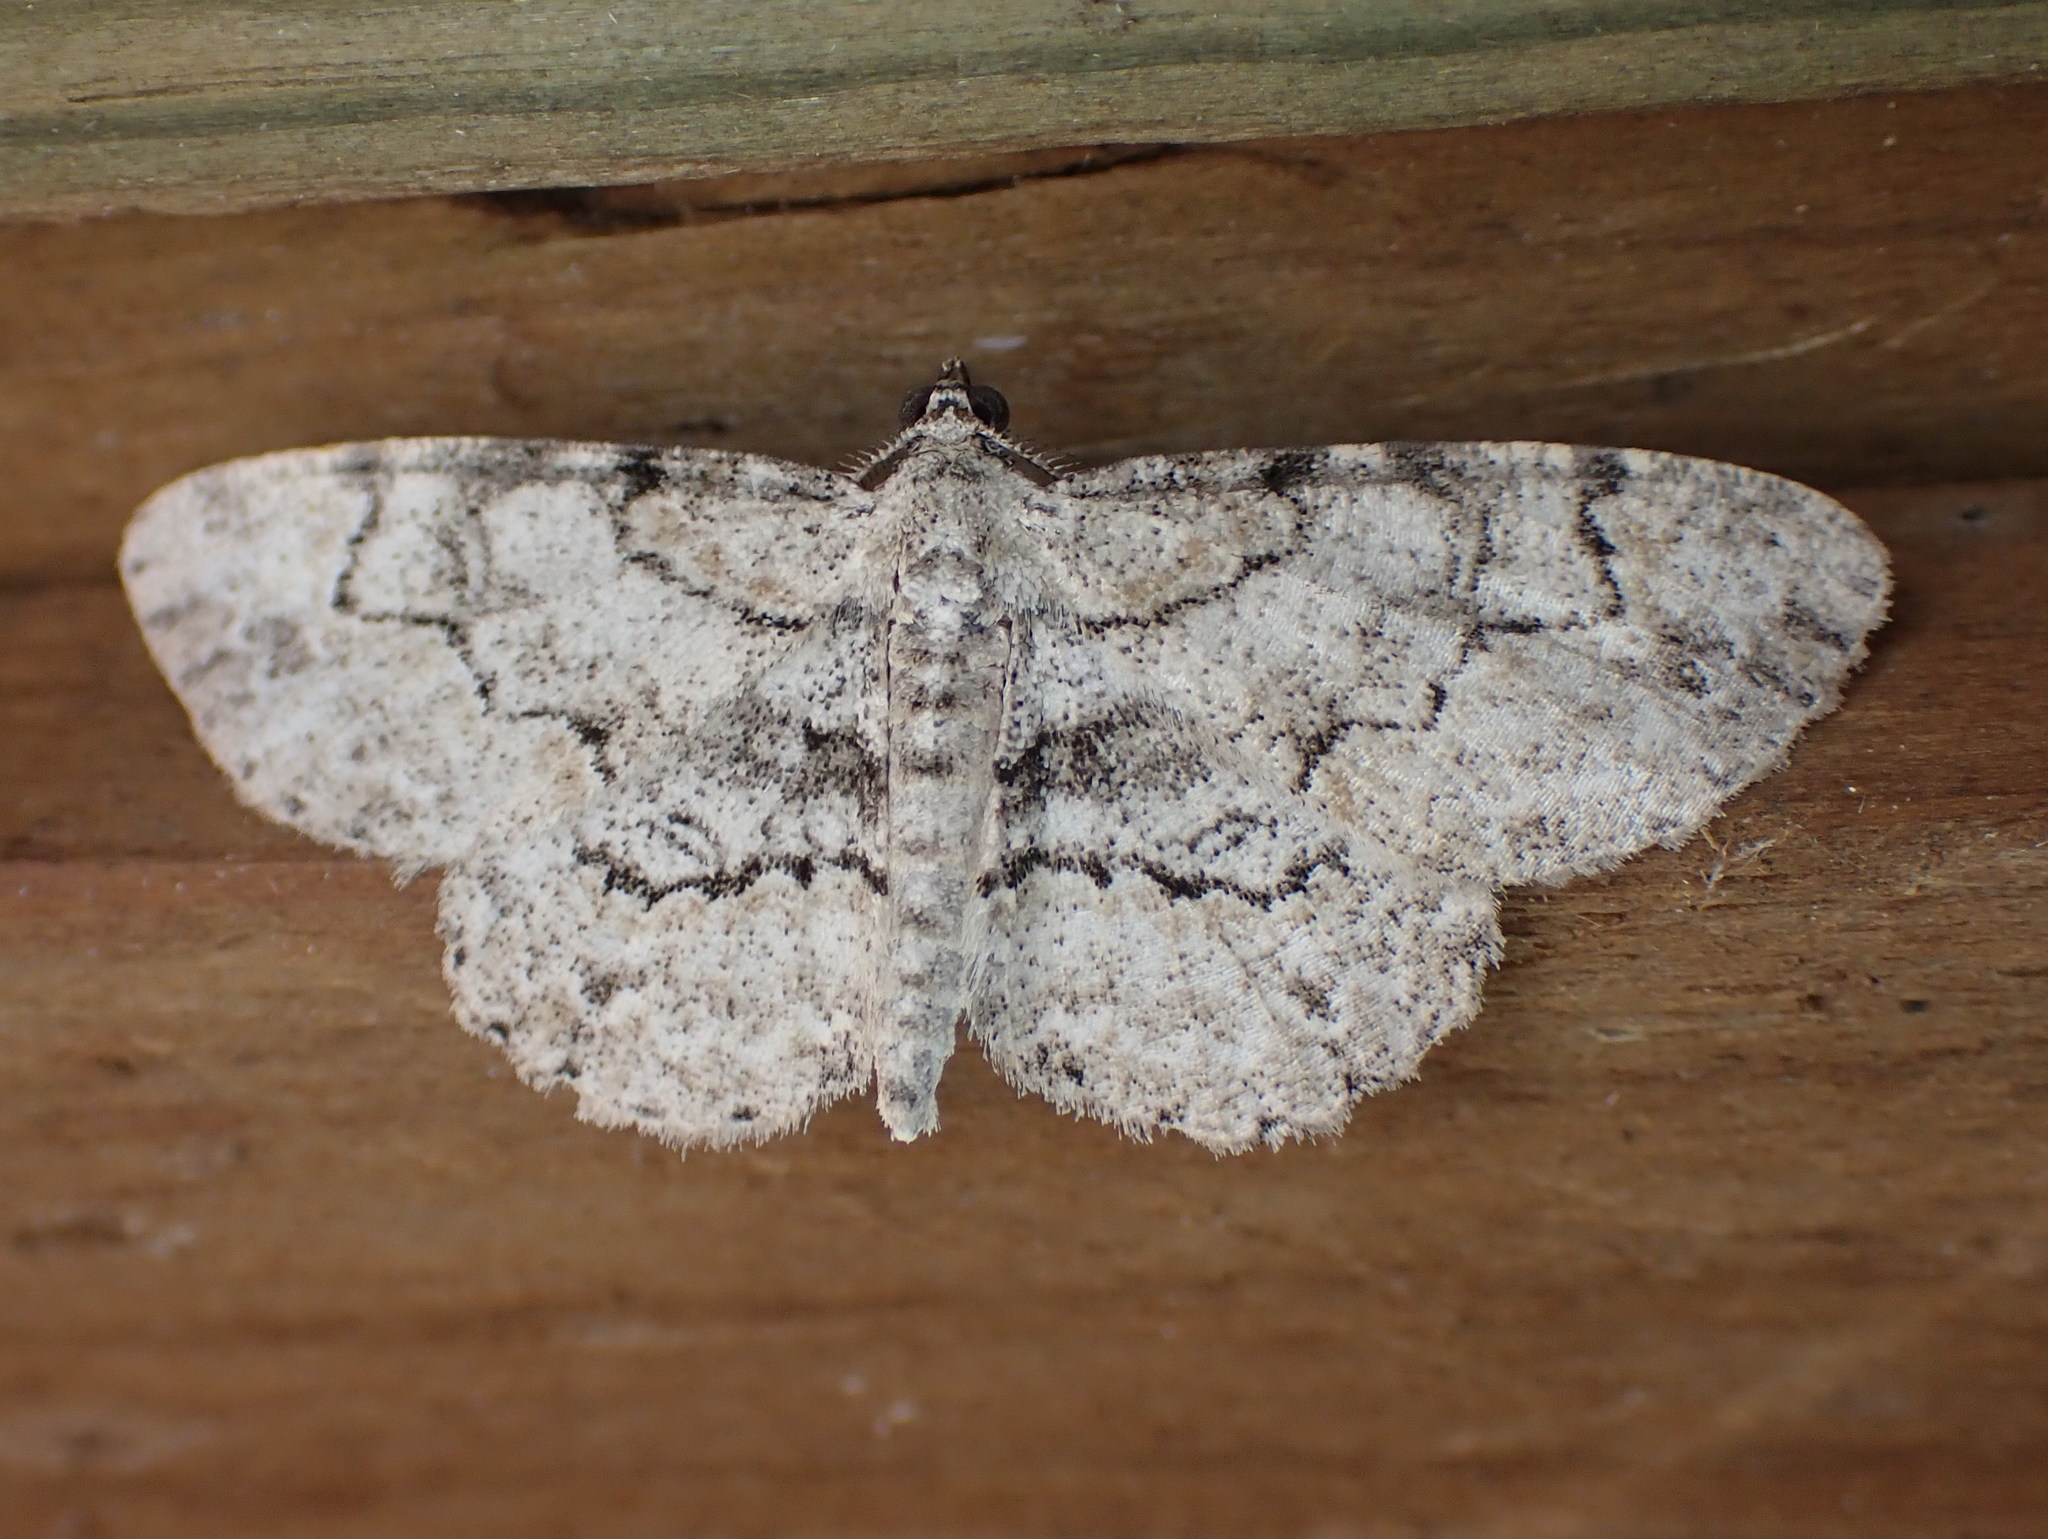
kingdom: Animalia
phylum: Arthropoda
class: Insecta
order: Lepidoptera
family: Geometridae
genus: Iridopsis
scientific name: Iridopsis ephyraria
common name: Pale-winged gray
